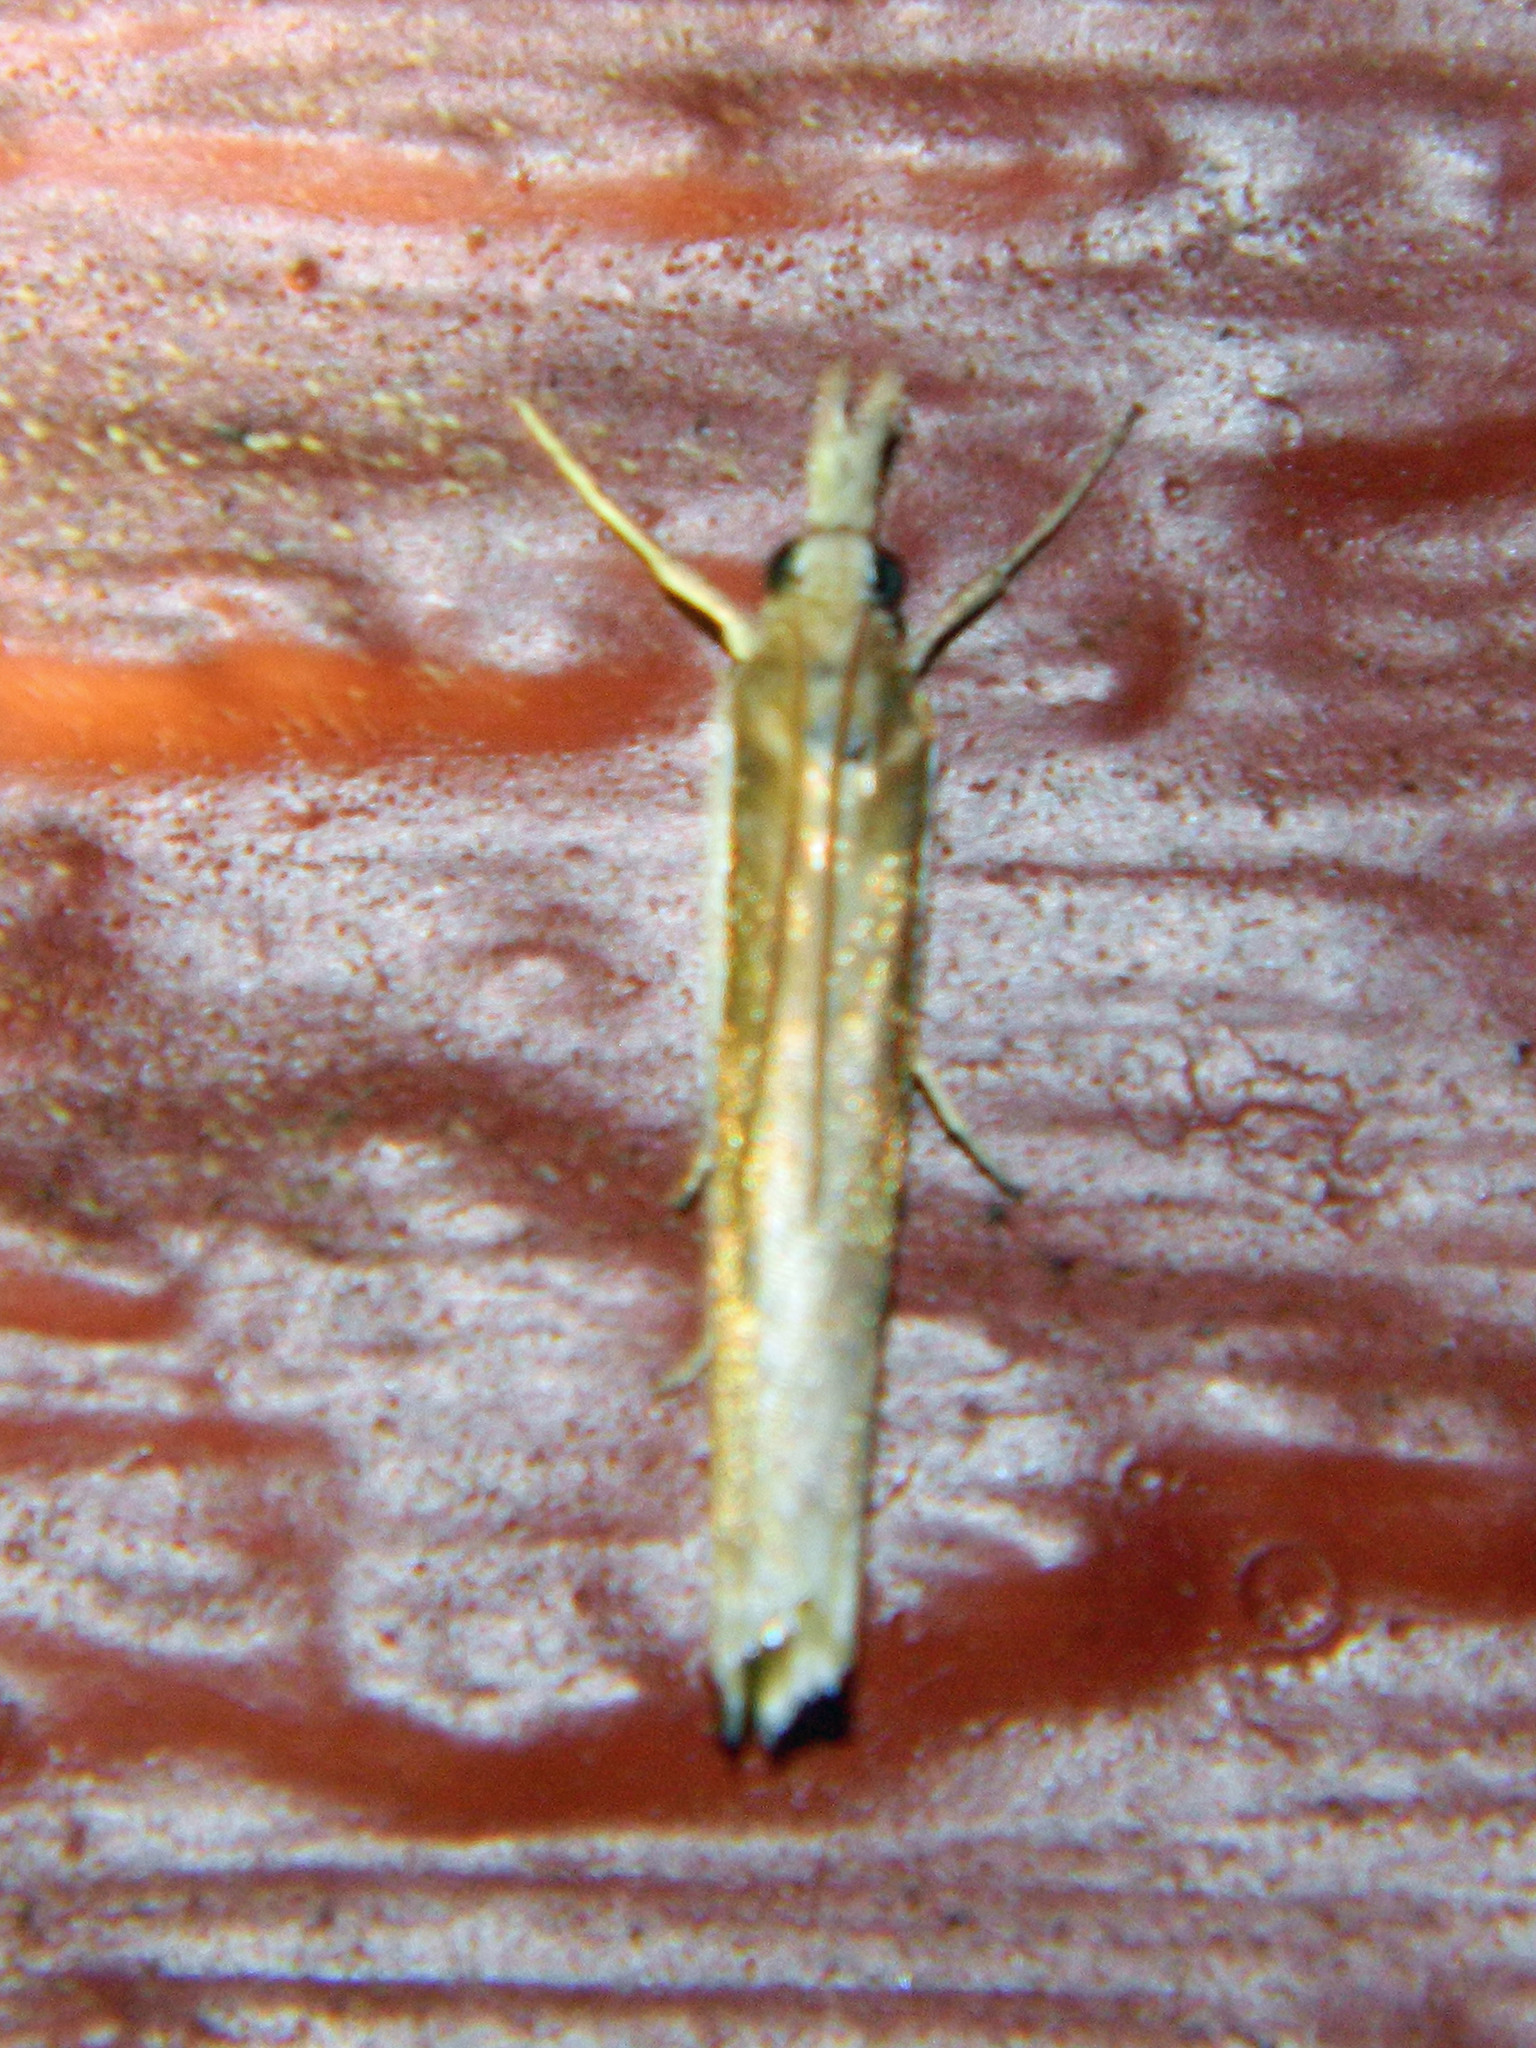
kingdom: Animalia
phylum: Arthropoda
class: Insecta
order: Lepidoptera
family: Crambidae
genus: Crambus
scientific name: Crambus unistriatellus
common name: Wide-stripe grass-veneer moth
